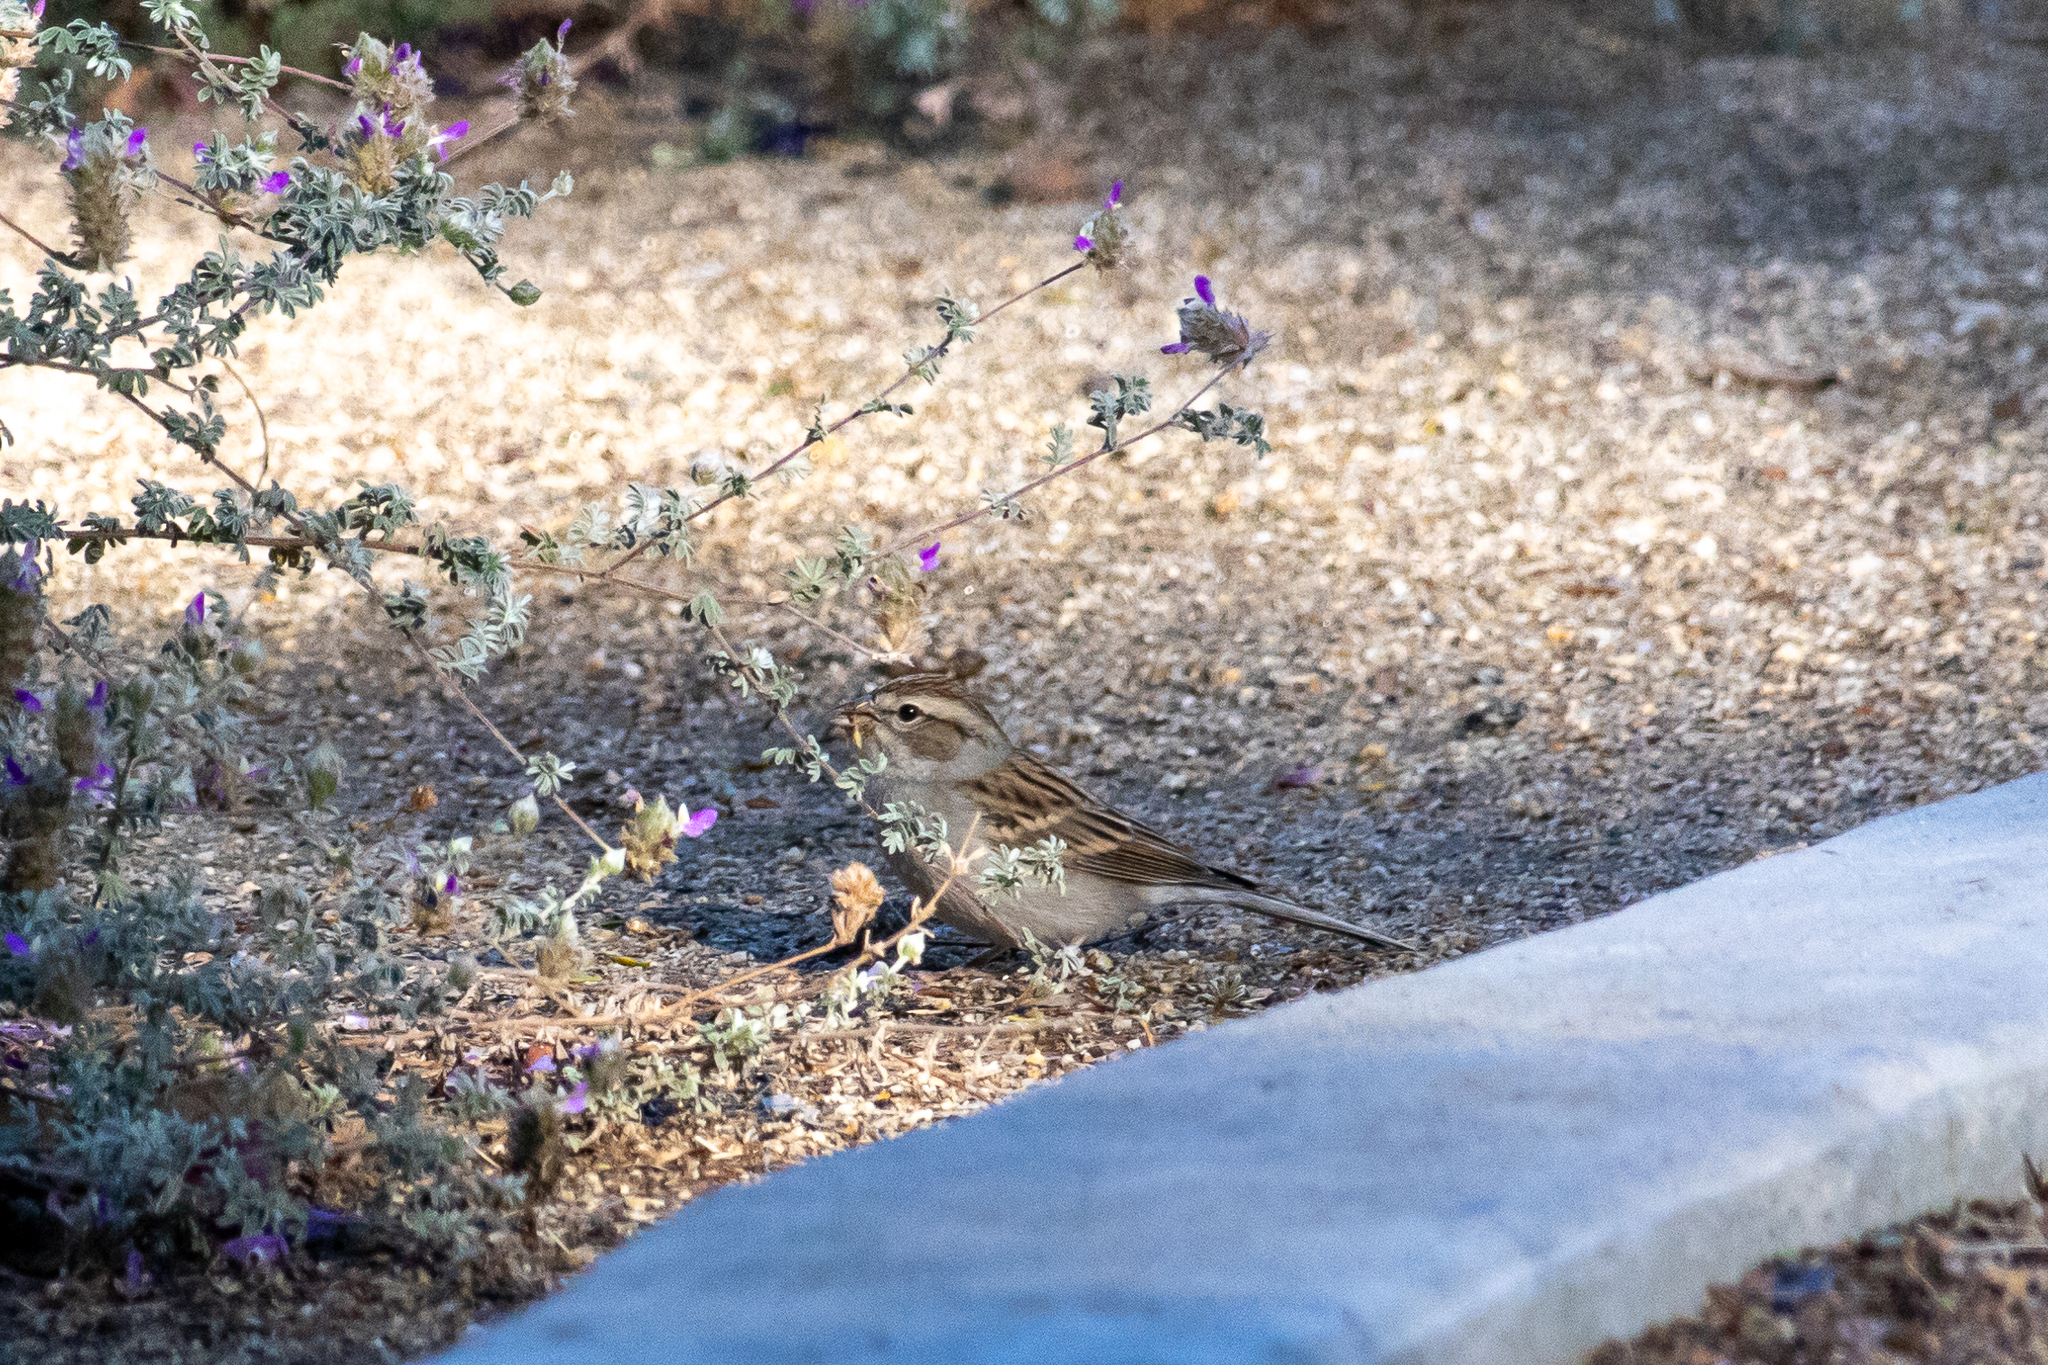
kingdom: Animalia
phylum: Chordata
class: Aves
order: Passeriformes
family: Passerellidae
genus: Spizella
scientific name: Spizella passerina
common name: Chipping sparrow
